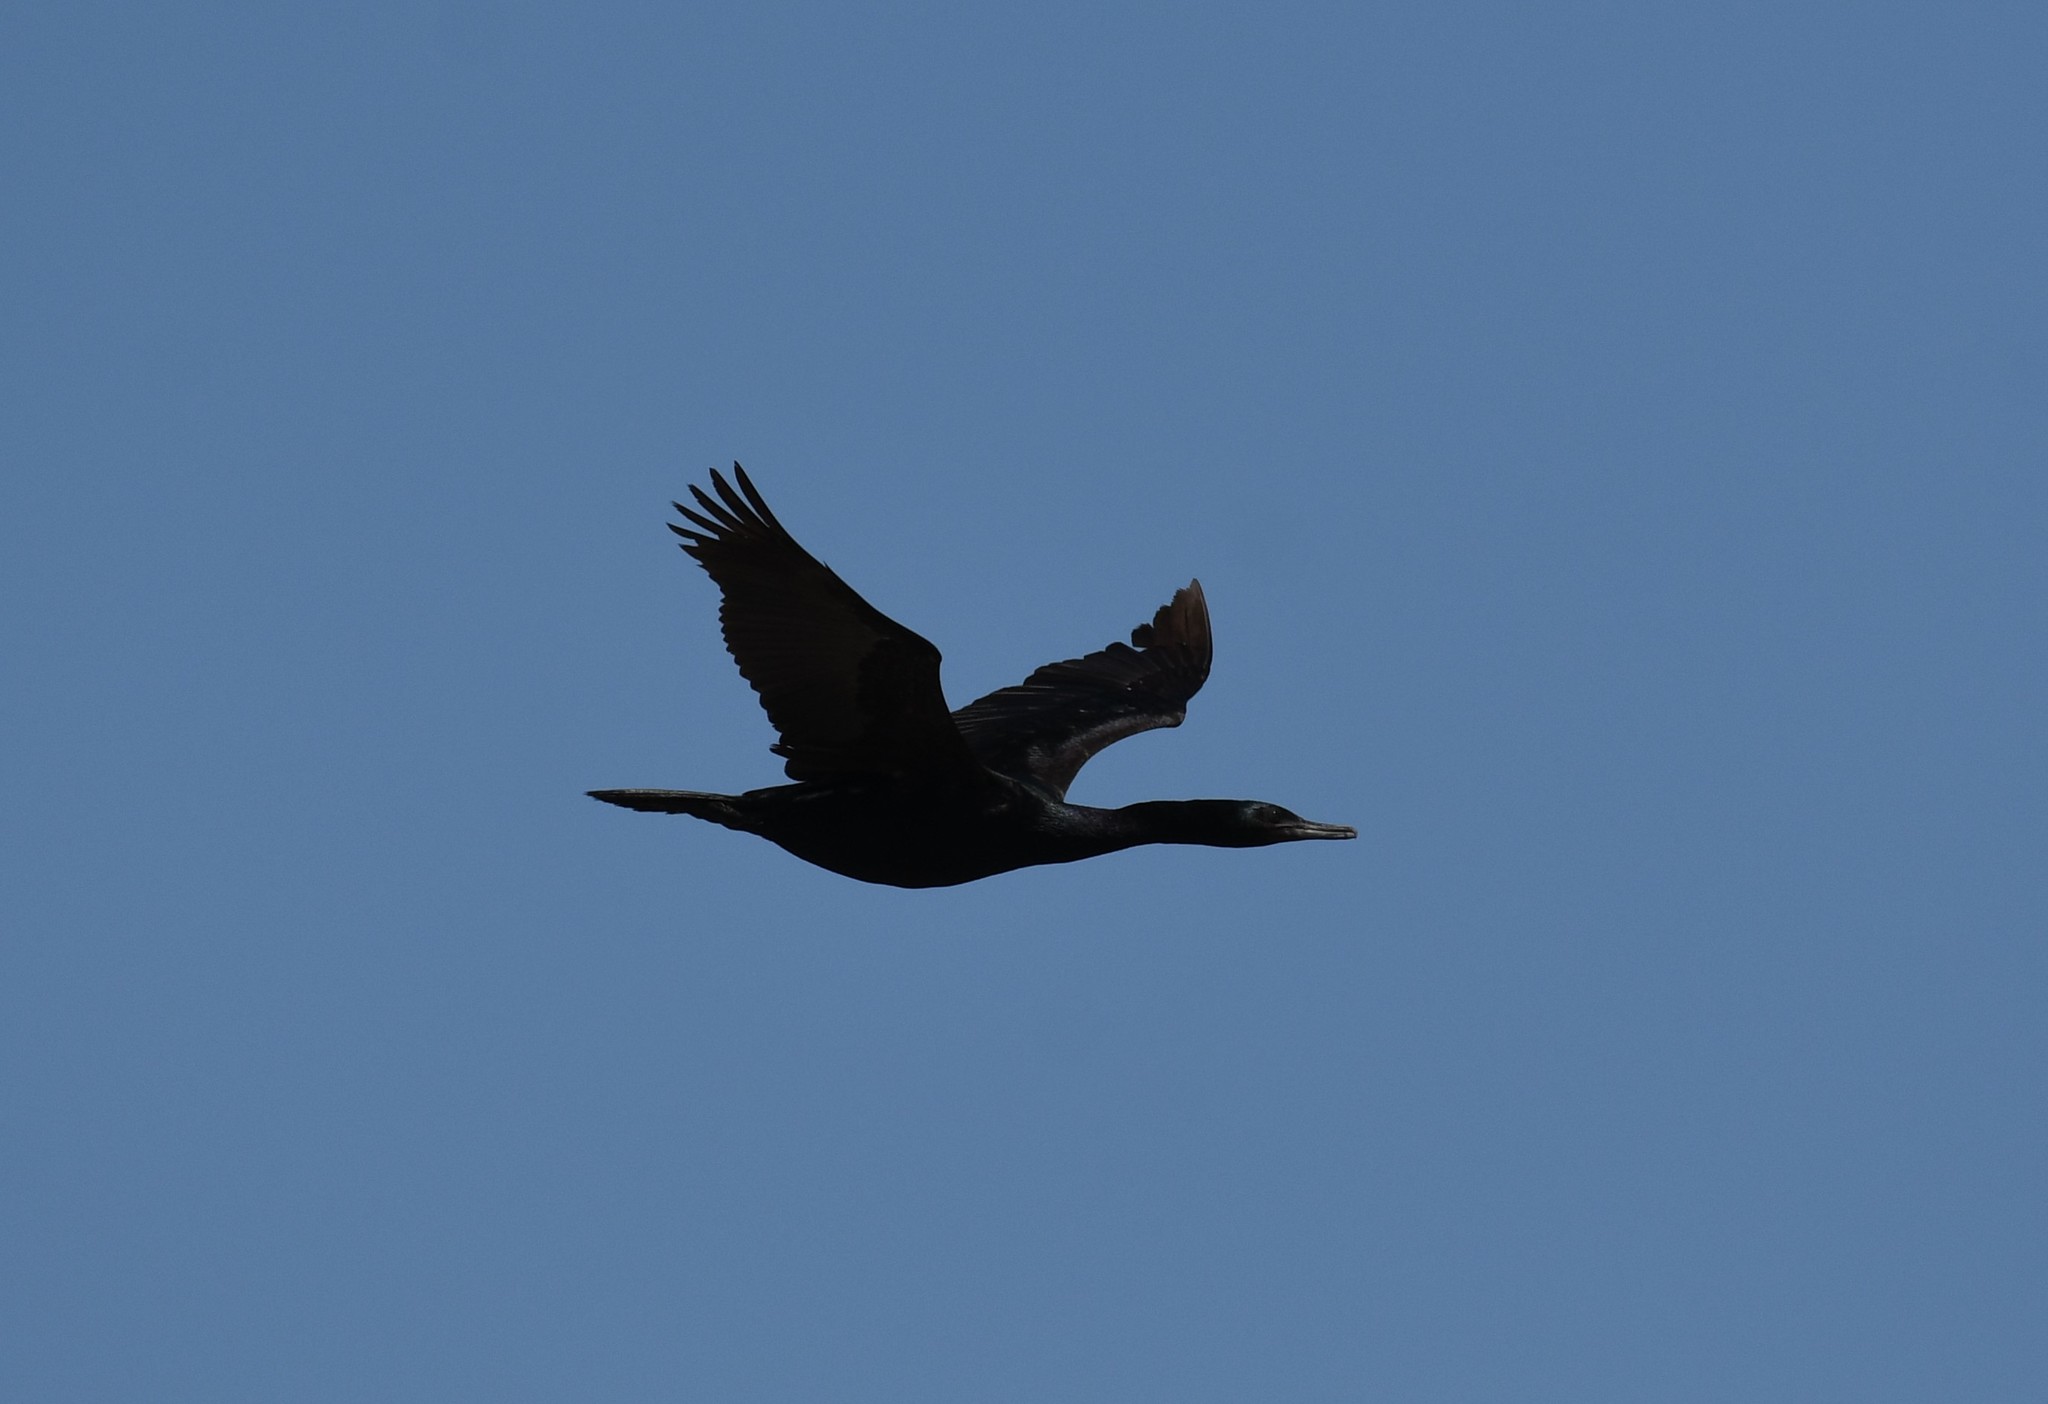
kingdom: Animalia
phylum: Chordata
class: Aves
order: Suliformes
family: Phalacrocoracidae
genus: Phalacrocorax
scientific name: Phalacrocorax pelagicus
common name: Pelagic cormorant
